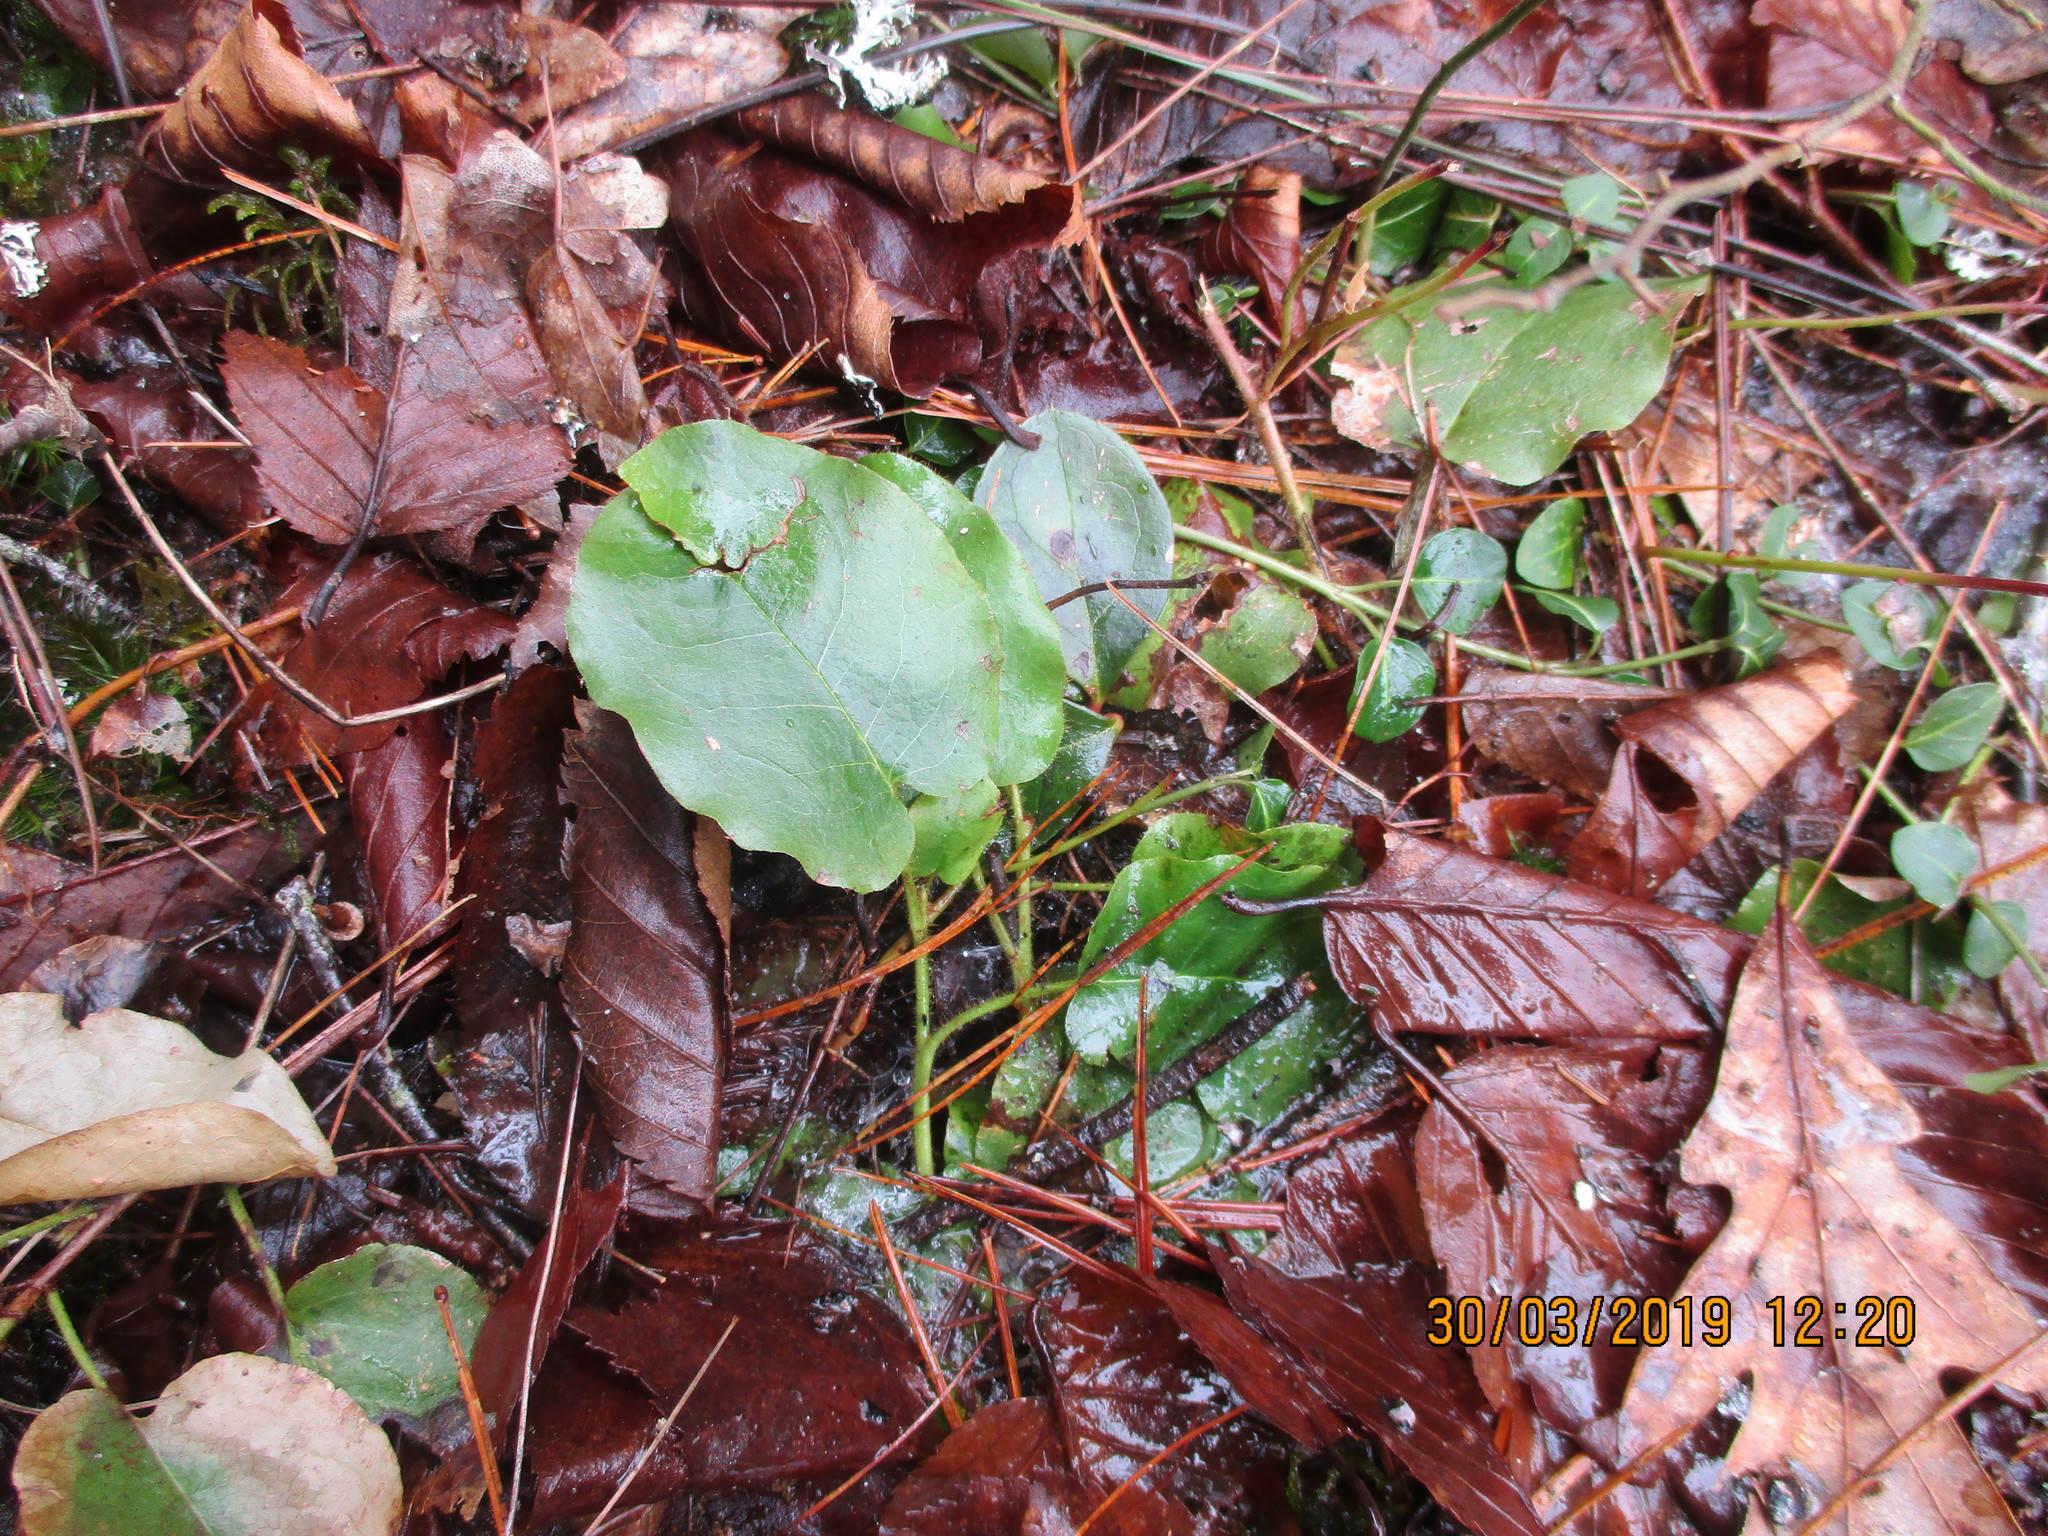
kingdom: Plantae
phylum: Tracheophyta
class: Magnoliopsida
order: Ericales
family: Ericaceae
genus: Epigaea
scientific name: Epigaea repens
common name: Gravelroot
